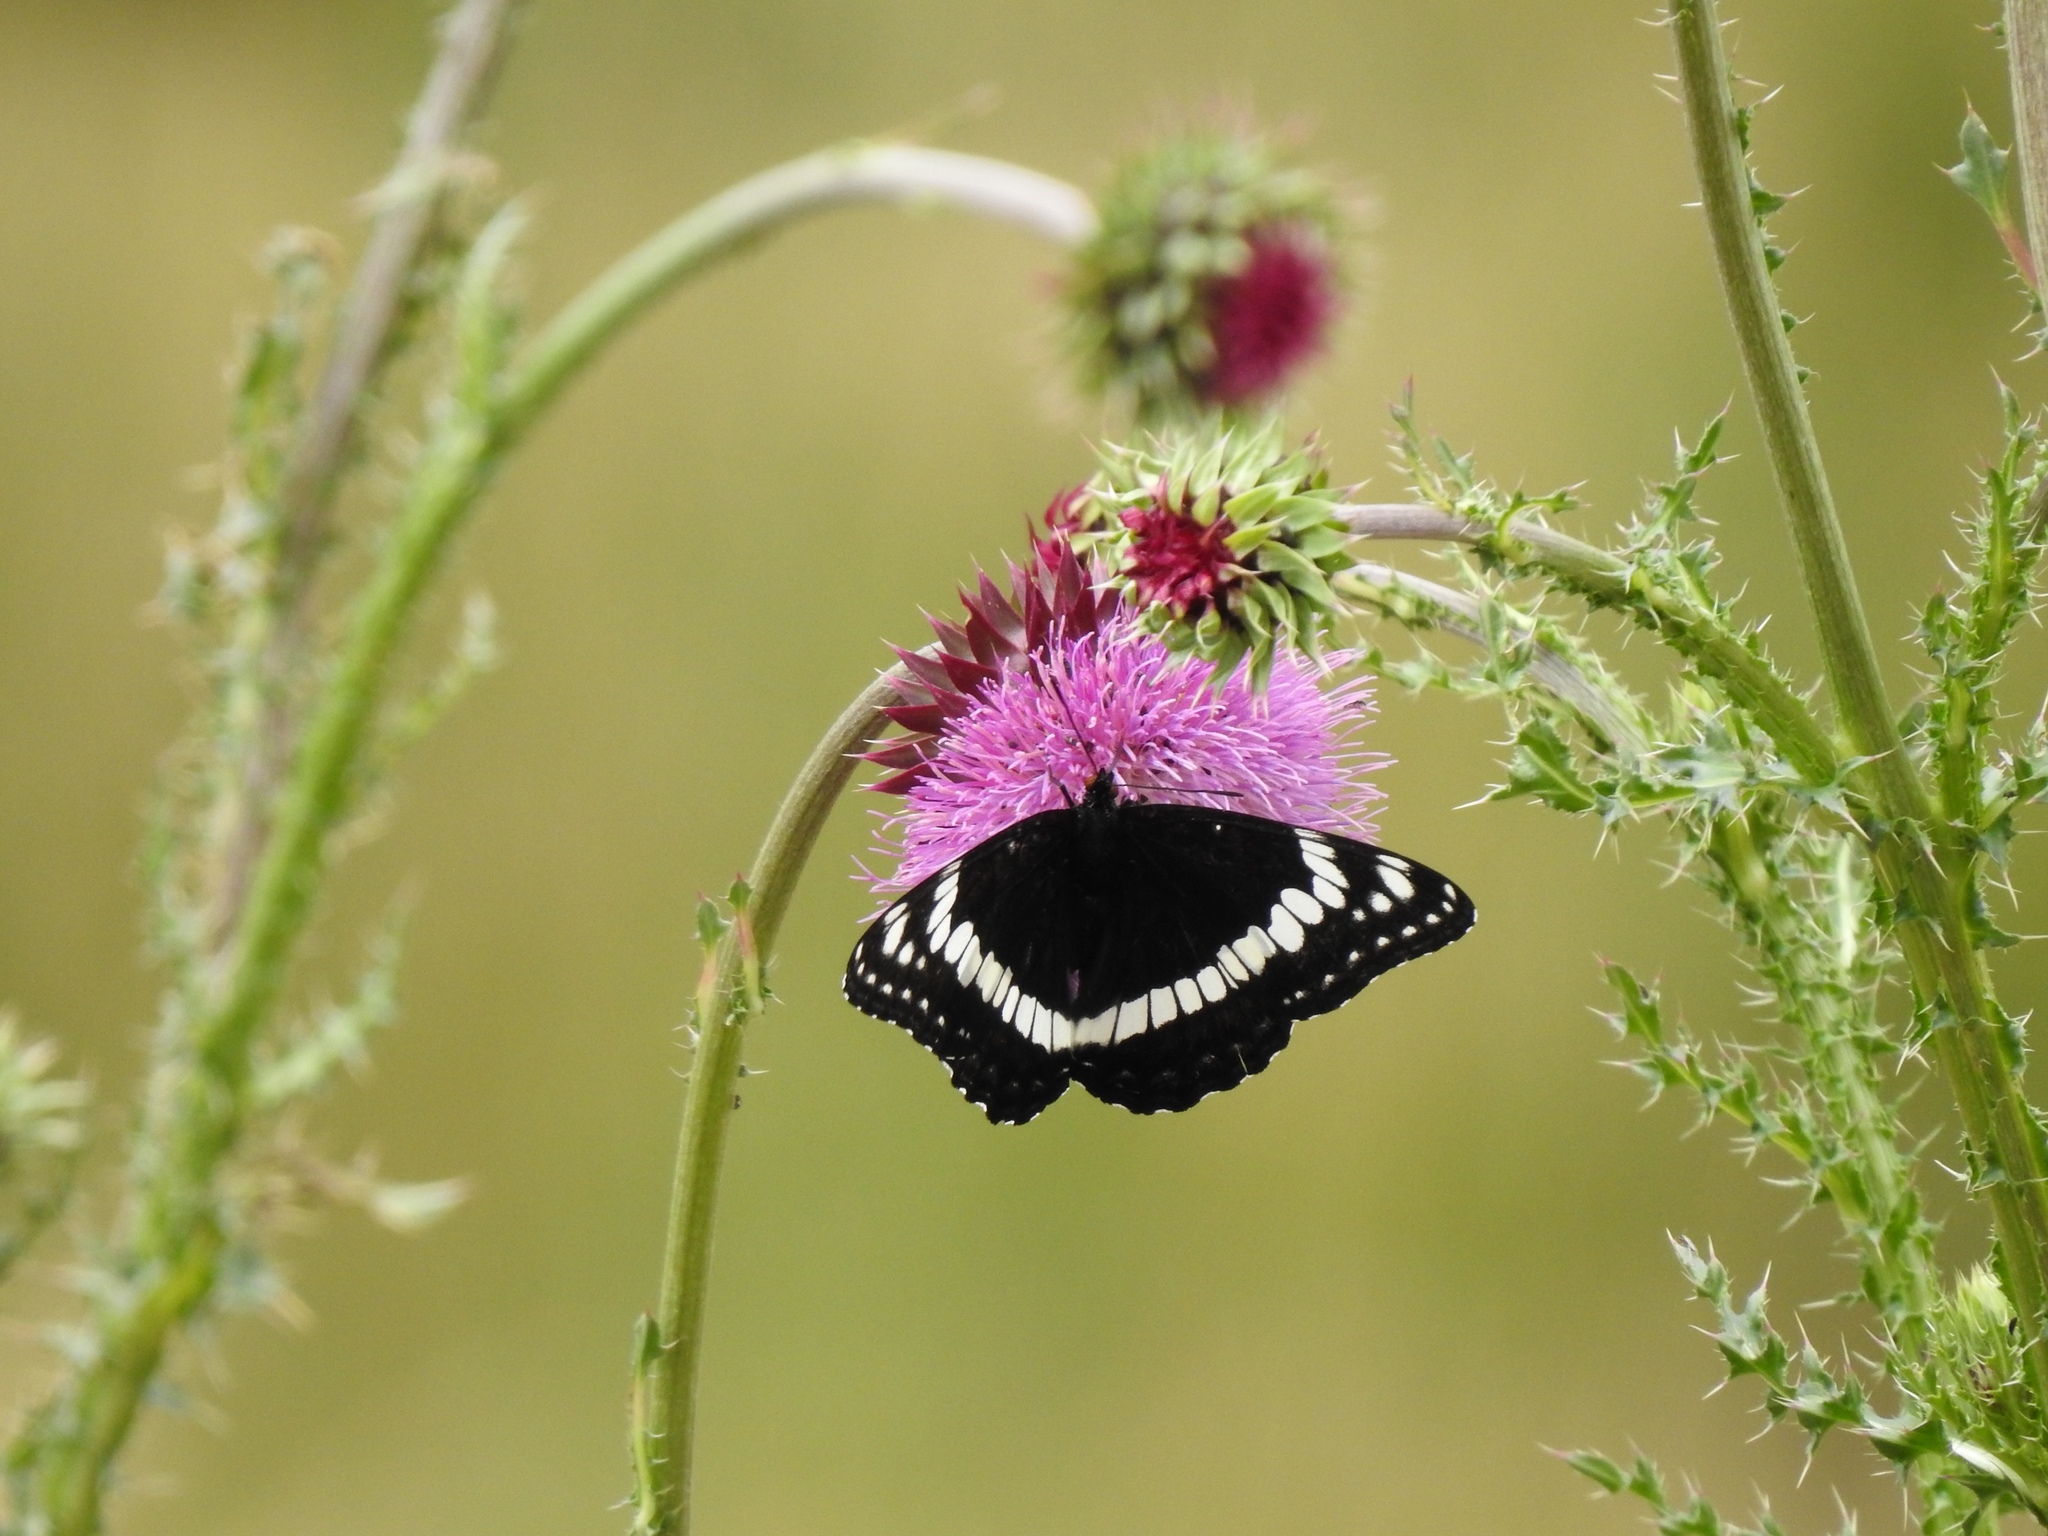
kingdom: Animalia
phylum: Arthropoda
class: Insecta
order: Lepidoptera
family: Nymphalidae
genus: Limenitis
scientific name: Limenitis weidemeyerii
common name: Weidemeyer's admiral
